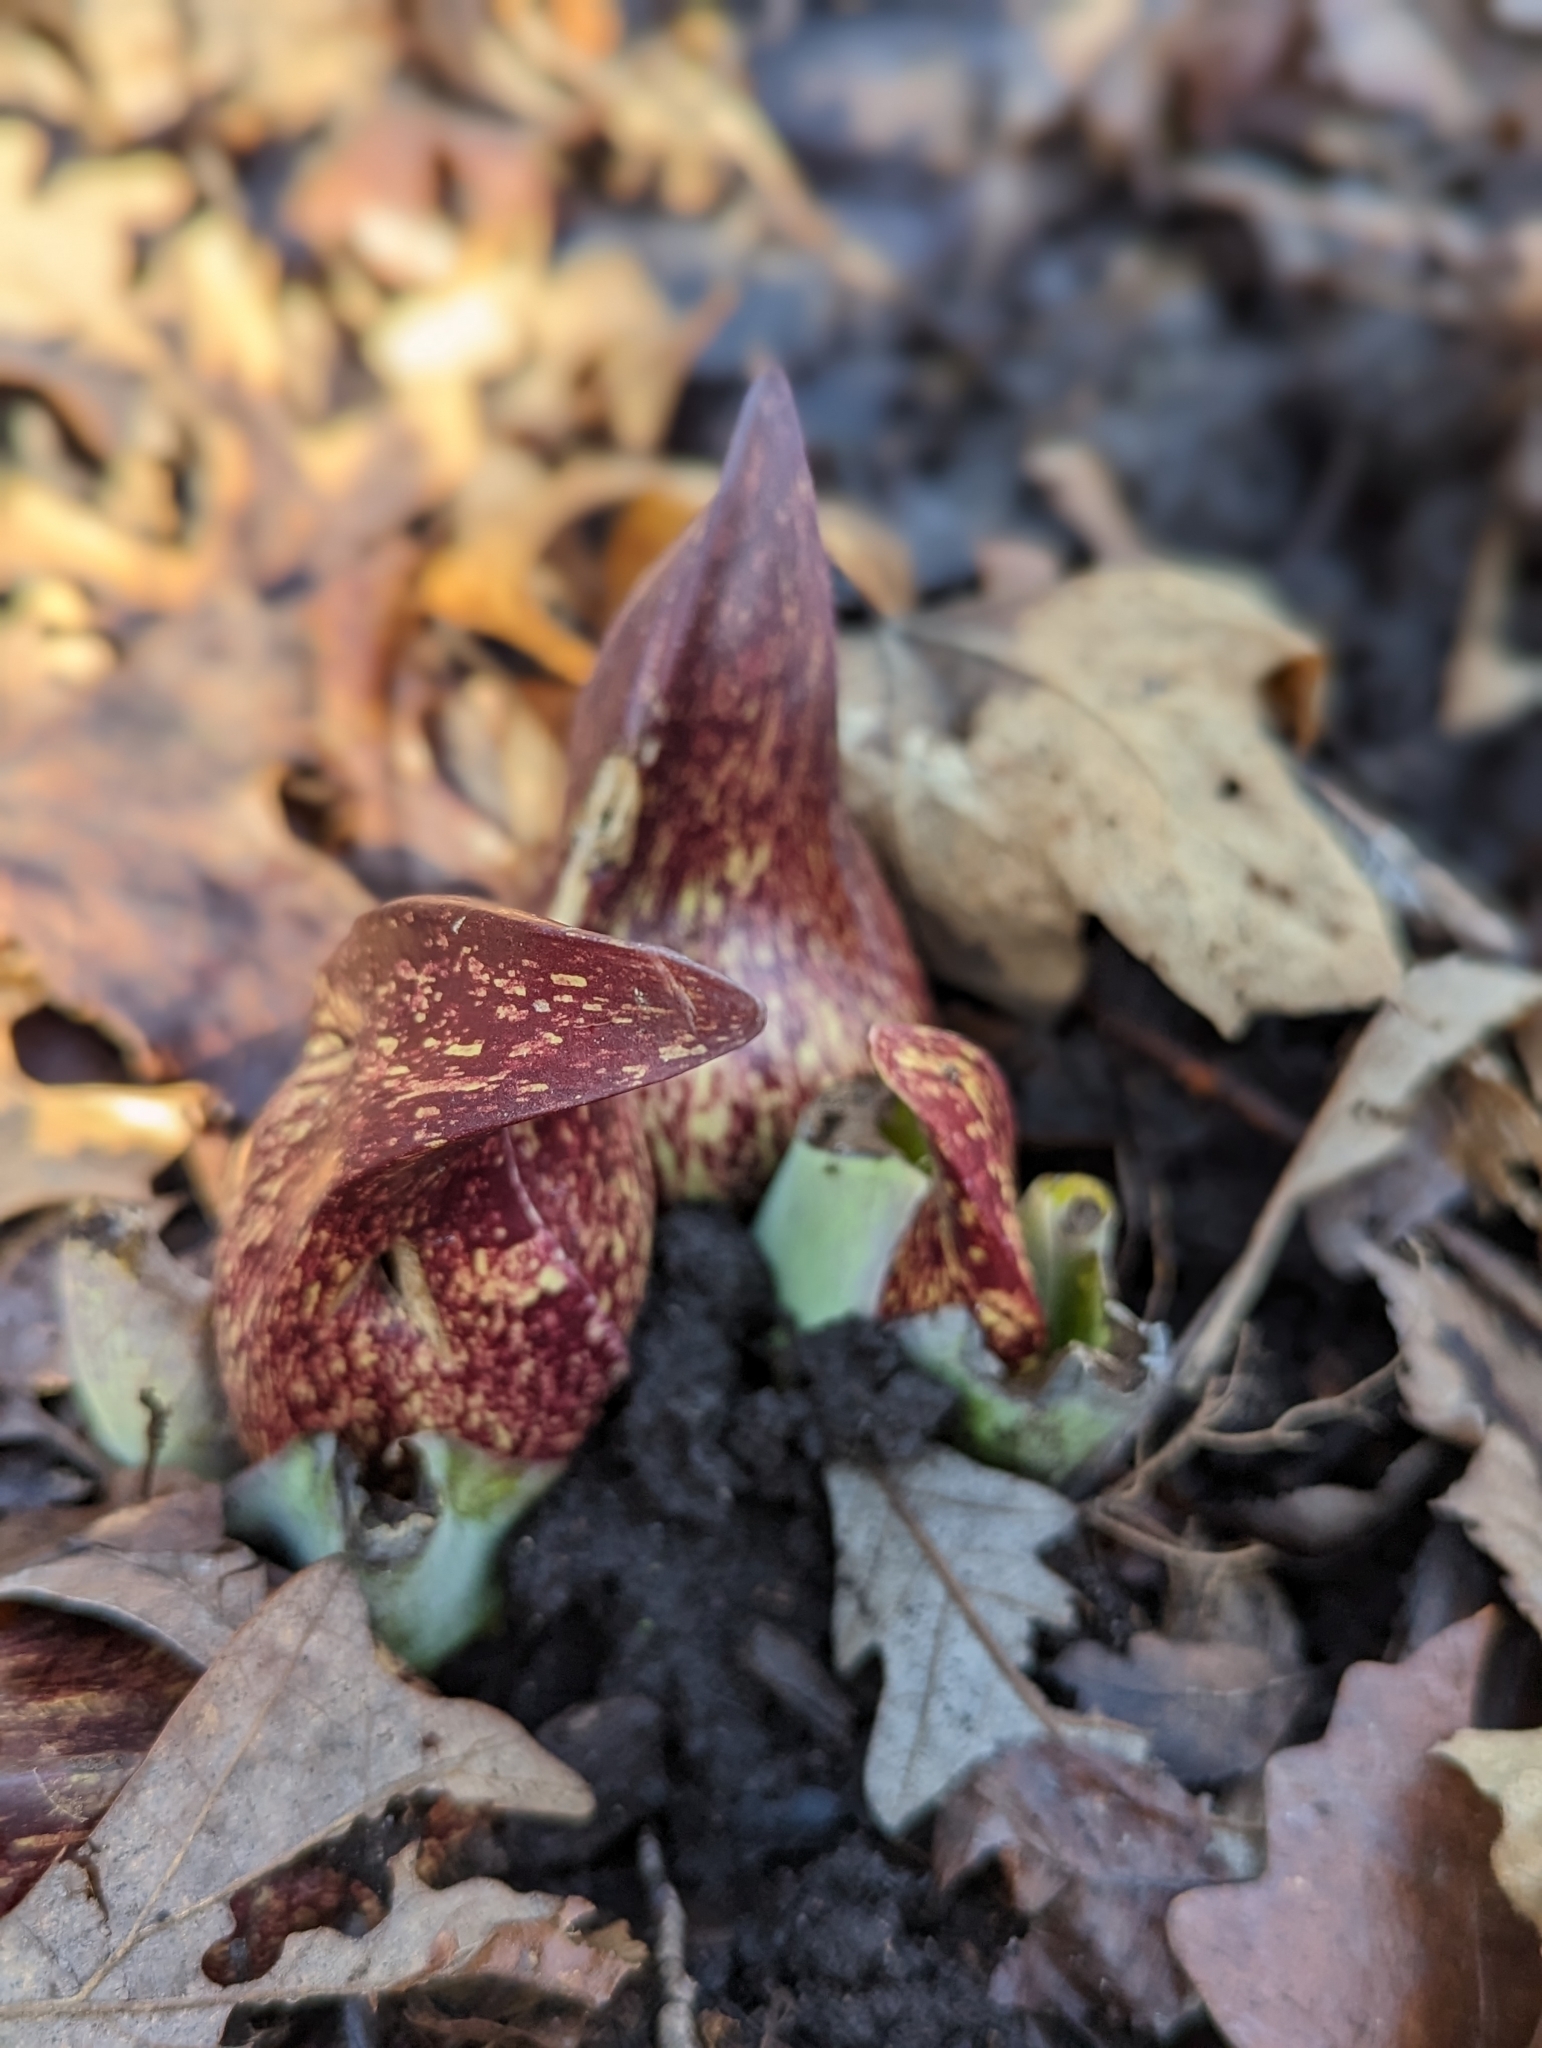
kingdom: Plantae
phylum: Tracheophyta
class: Liliopsida
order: Alismatales
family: Araceae
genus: Symplocarpus
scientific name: Symplocarpus foetidus
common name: Eastern skunk cabbage
